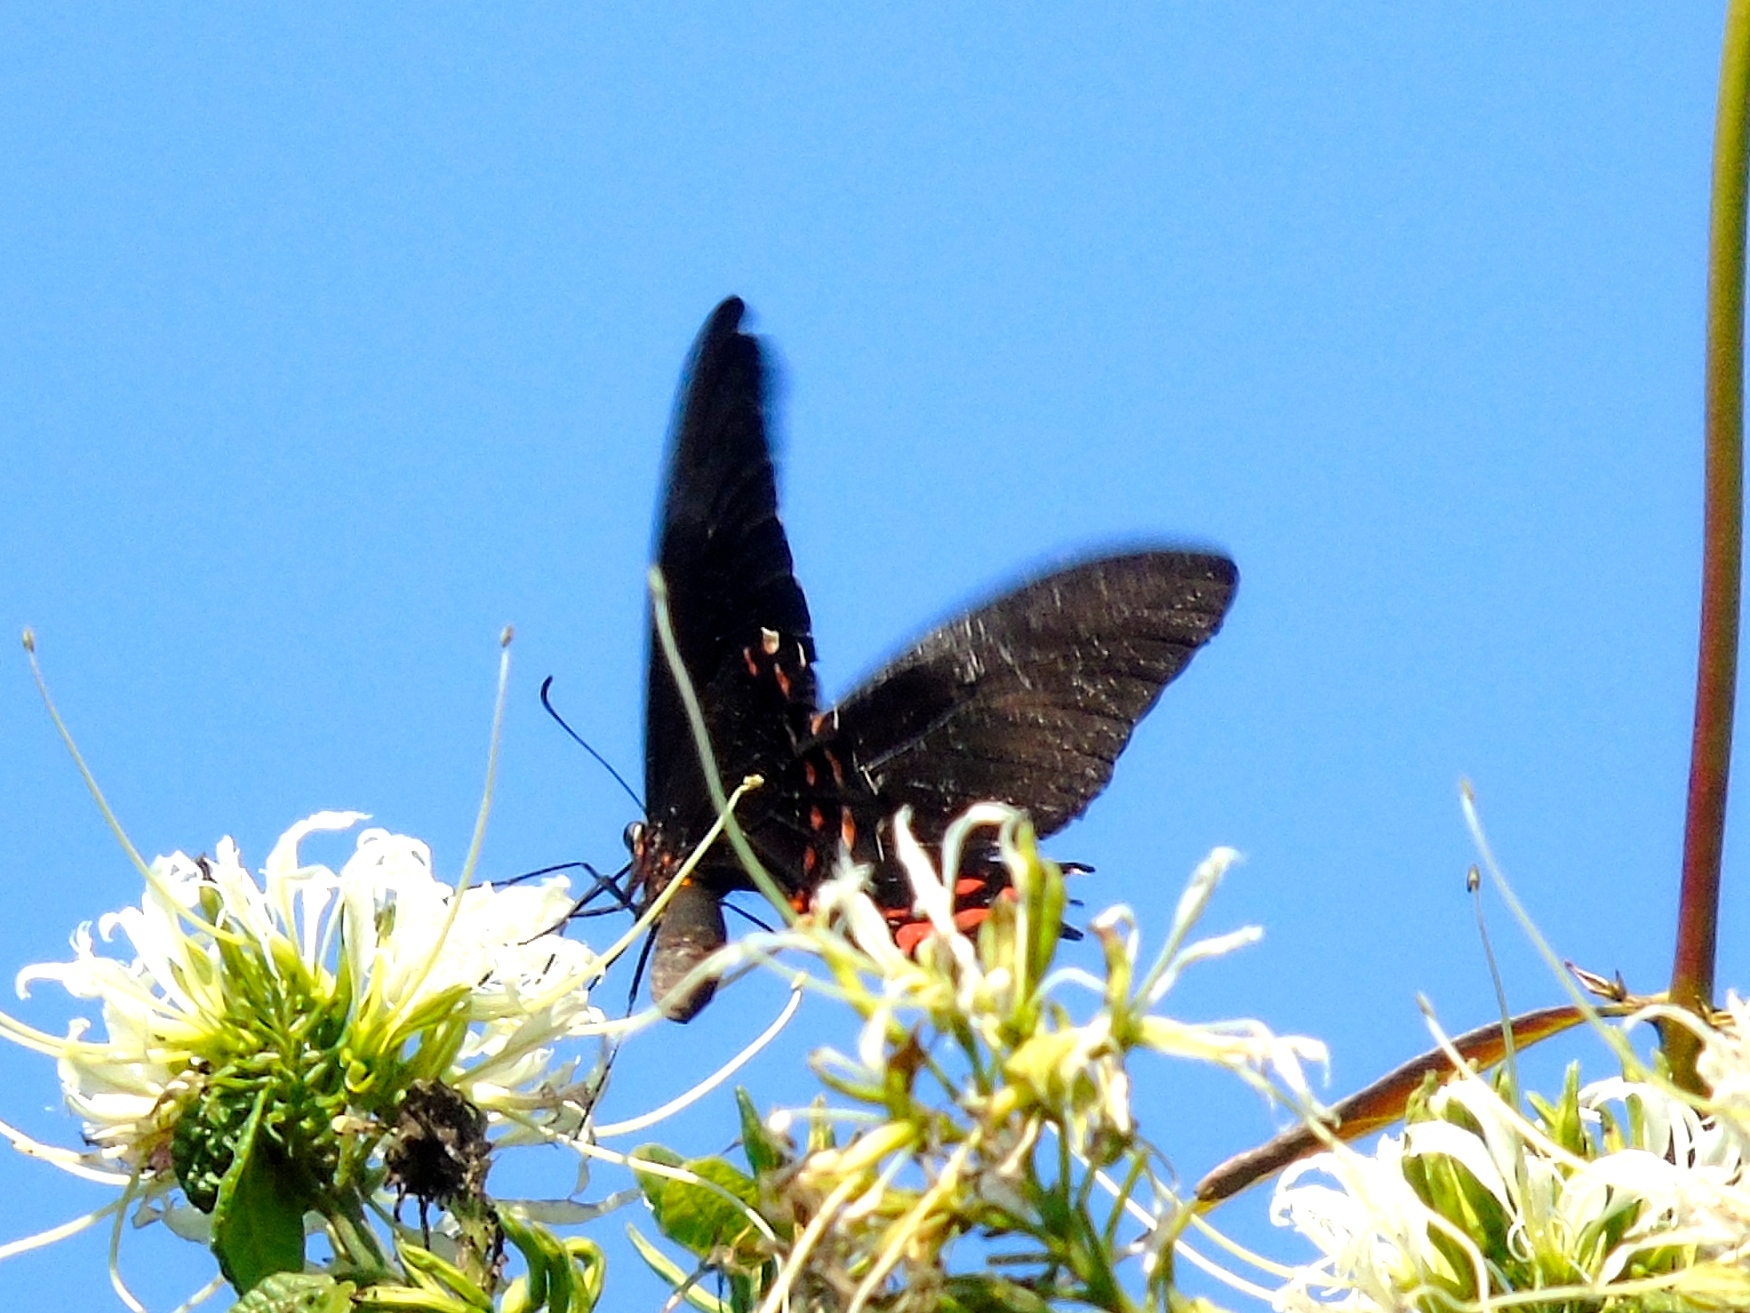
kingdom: Animalia
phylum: Arthropoda
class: Insecta
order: Lepidoptera
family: Papilionidae
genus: Heraclides
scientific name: Heraclides rogeri
